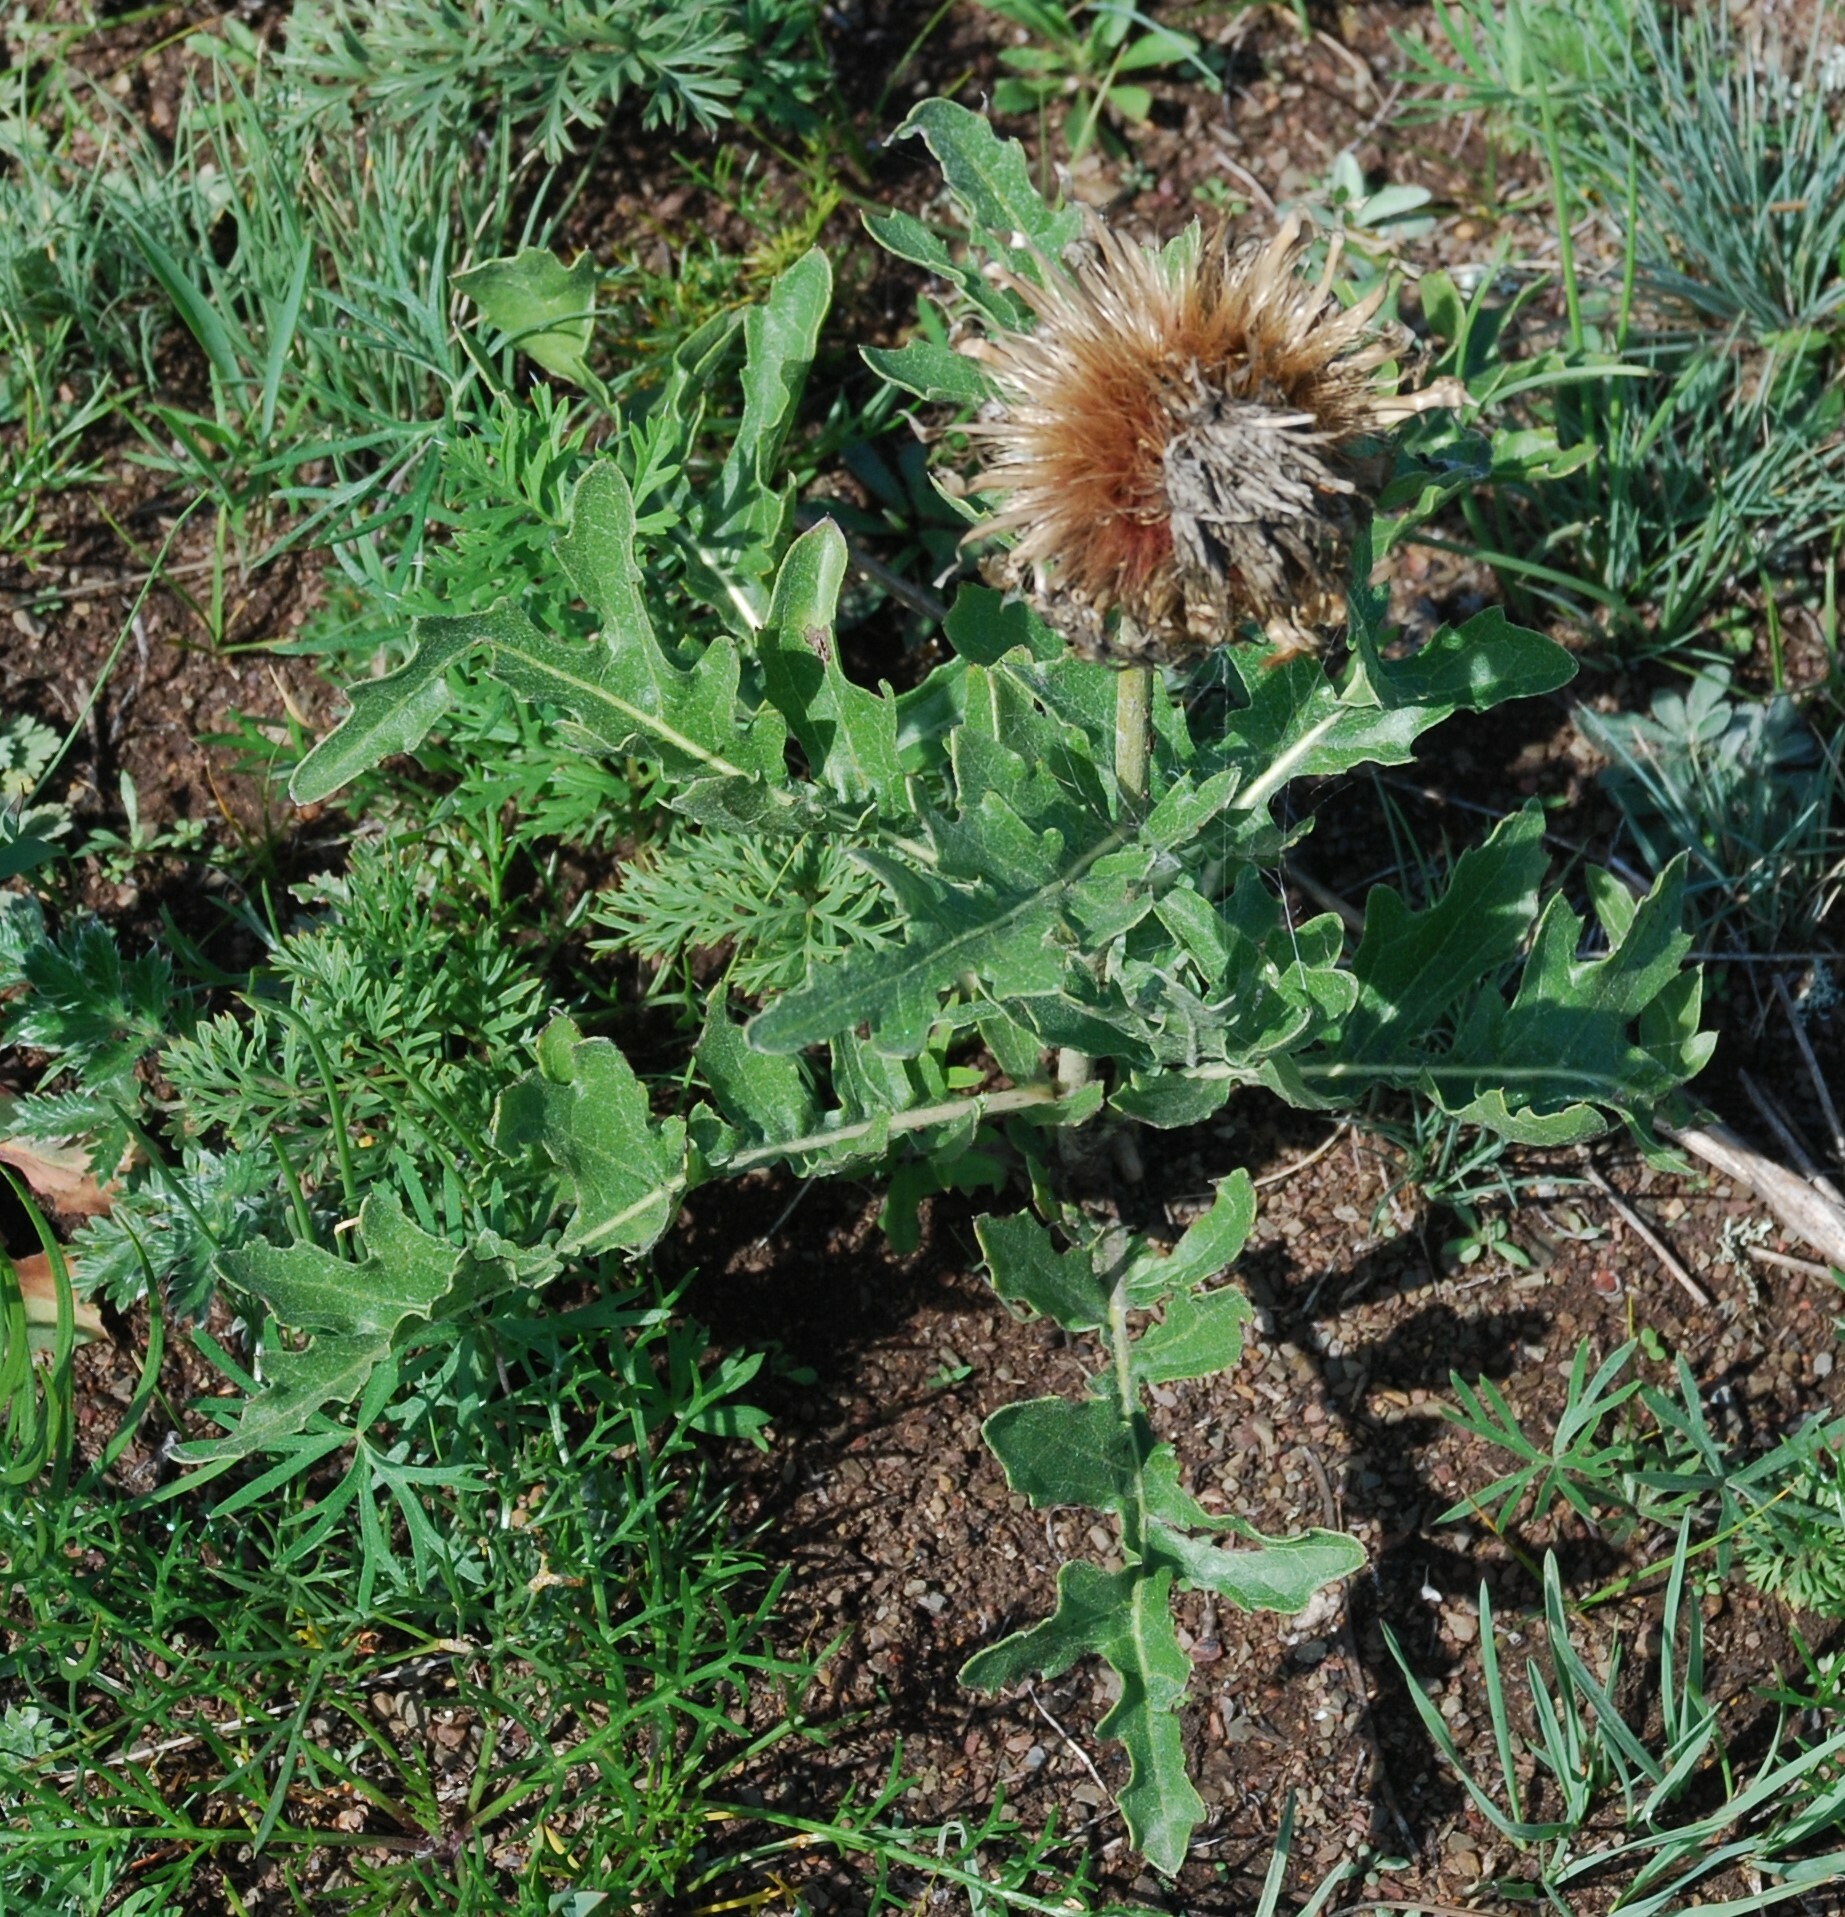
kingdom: Plantae
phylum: Tracheophyta
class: Magnoliopsida
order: Asterales
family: Asteraceae
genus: Leuzea
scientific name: Leuzea uniflora
